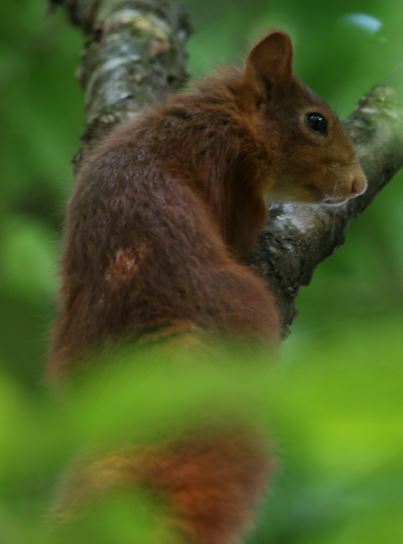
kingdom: Animalia
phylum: Chordata
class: Mammalia
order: Rodentia
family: Sciuridae
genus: Sciurus
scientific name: Sciurus vulgaris
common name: Eurasian red squirrel
